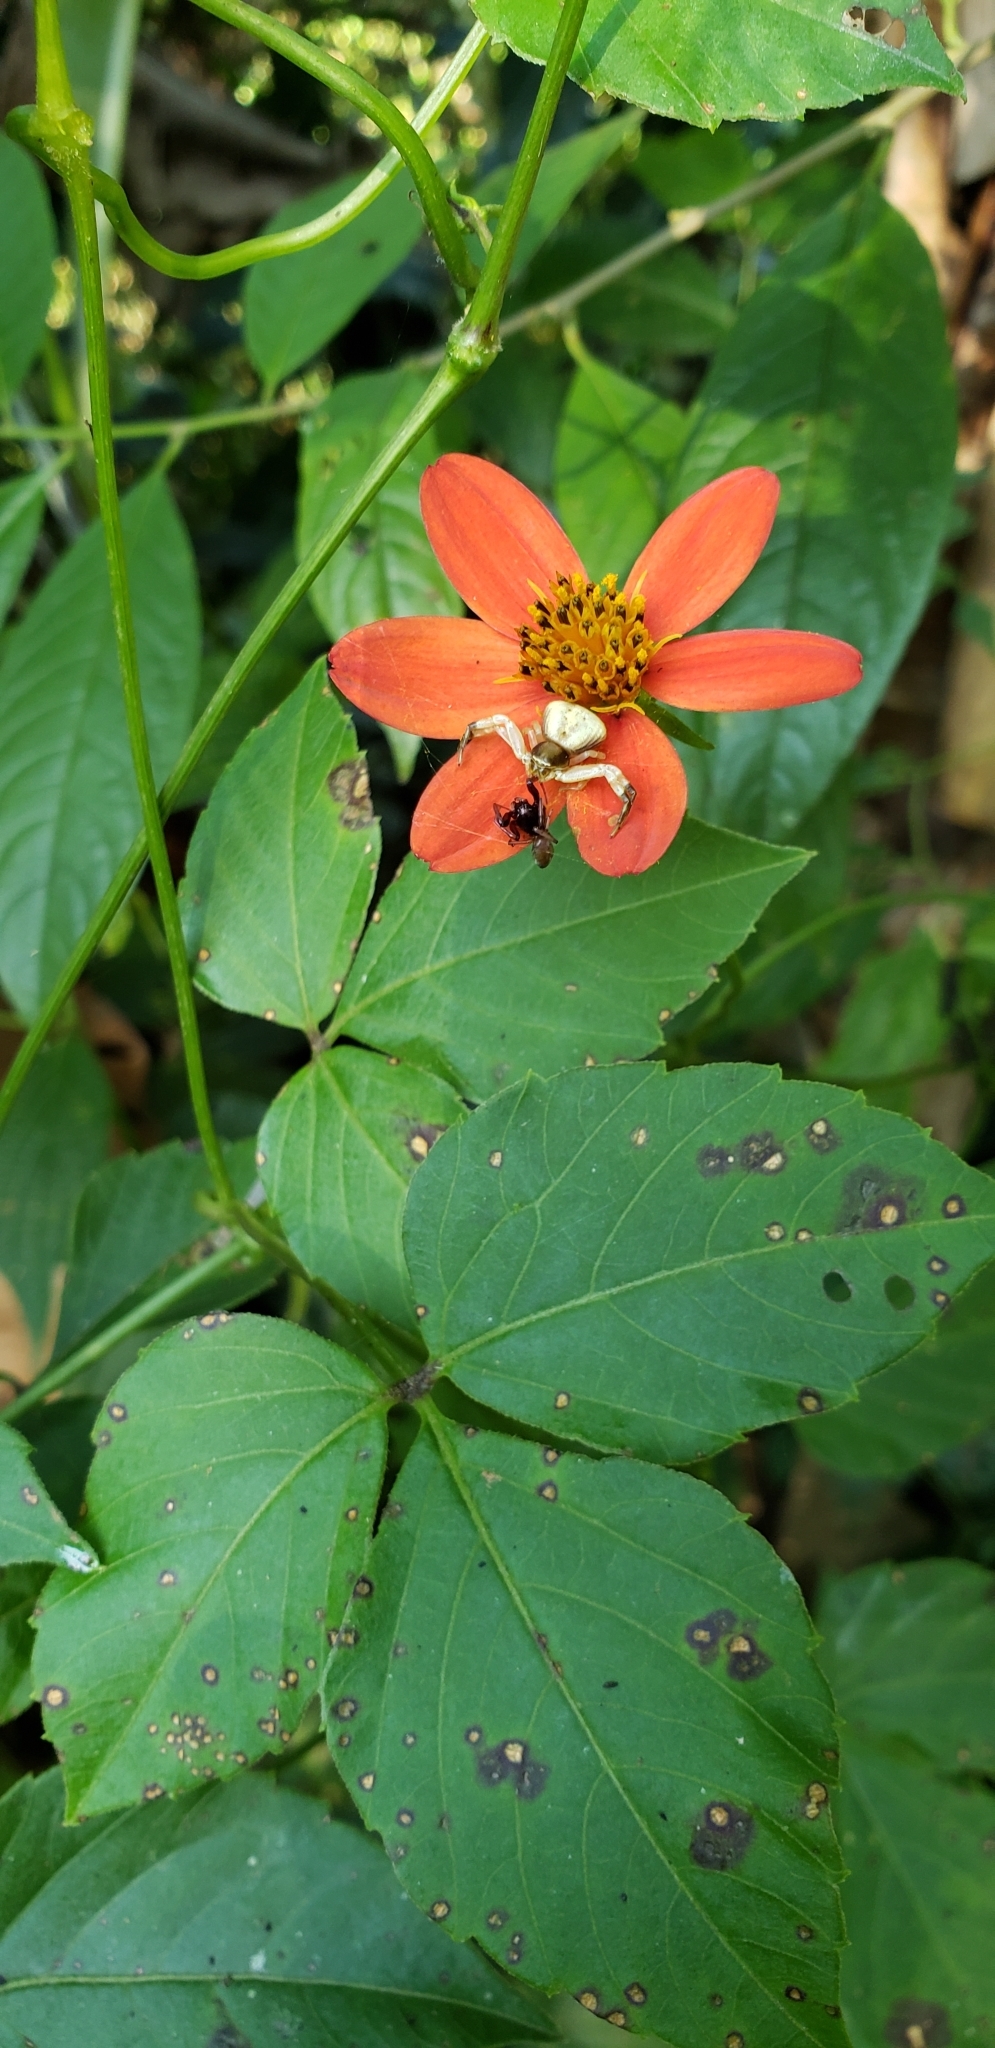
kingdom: Plantae
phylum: Tracheophyta
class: Magnoliopsida
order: Asterales
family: Asteraceae
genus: Hidalgoa
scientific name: Hidalgoa ternata
